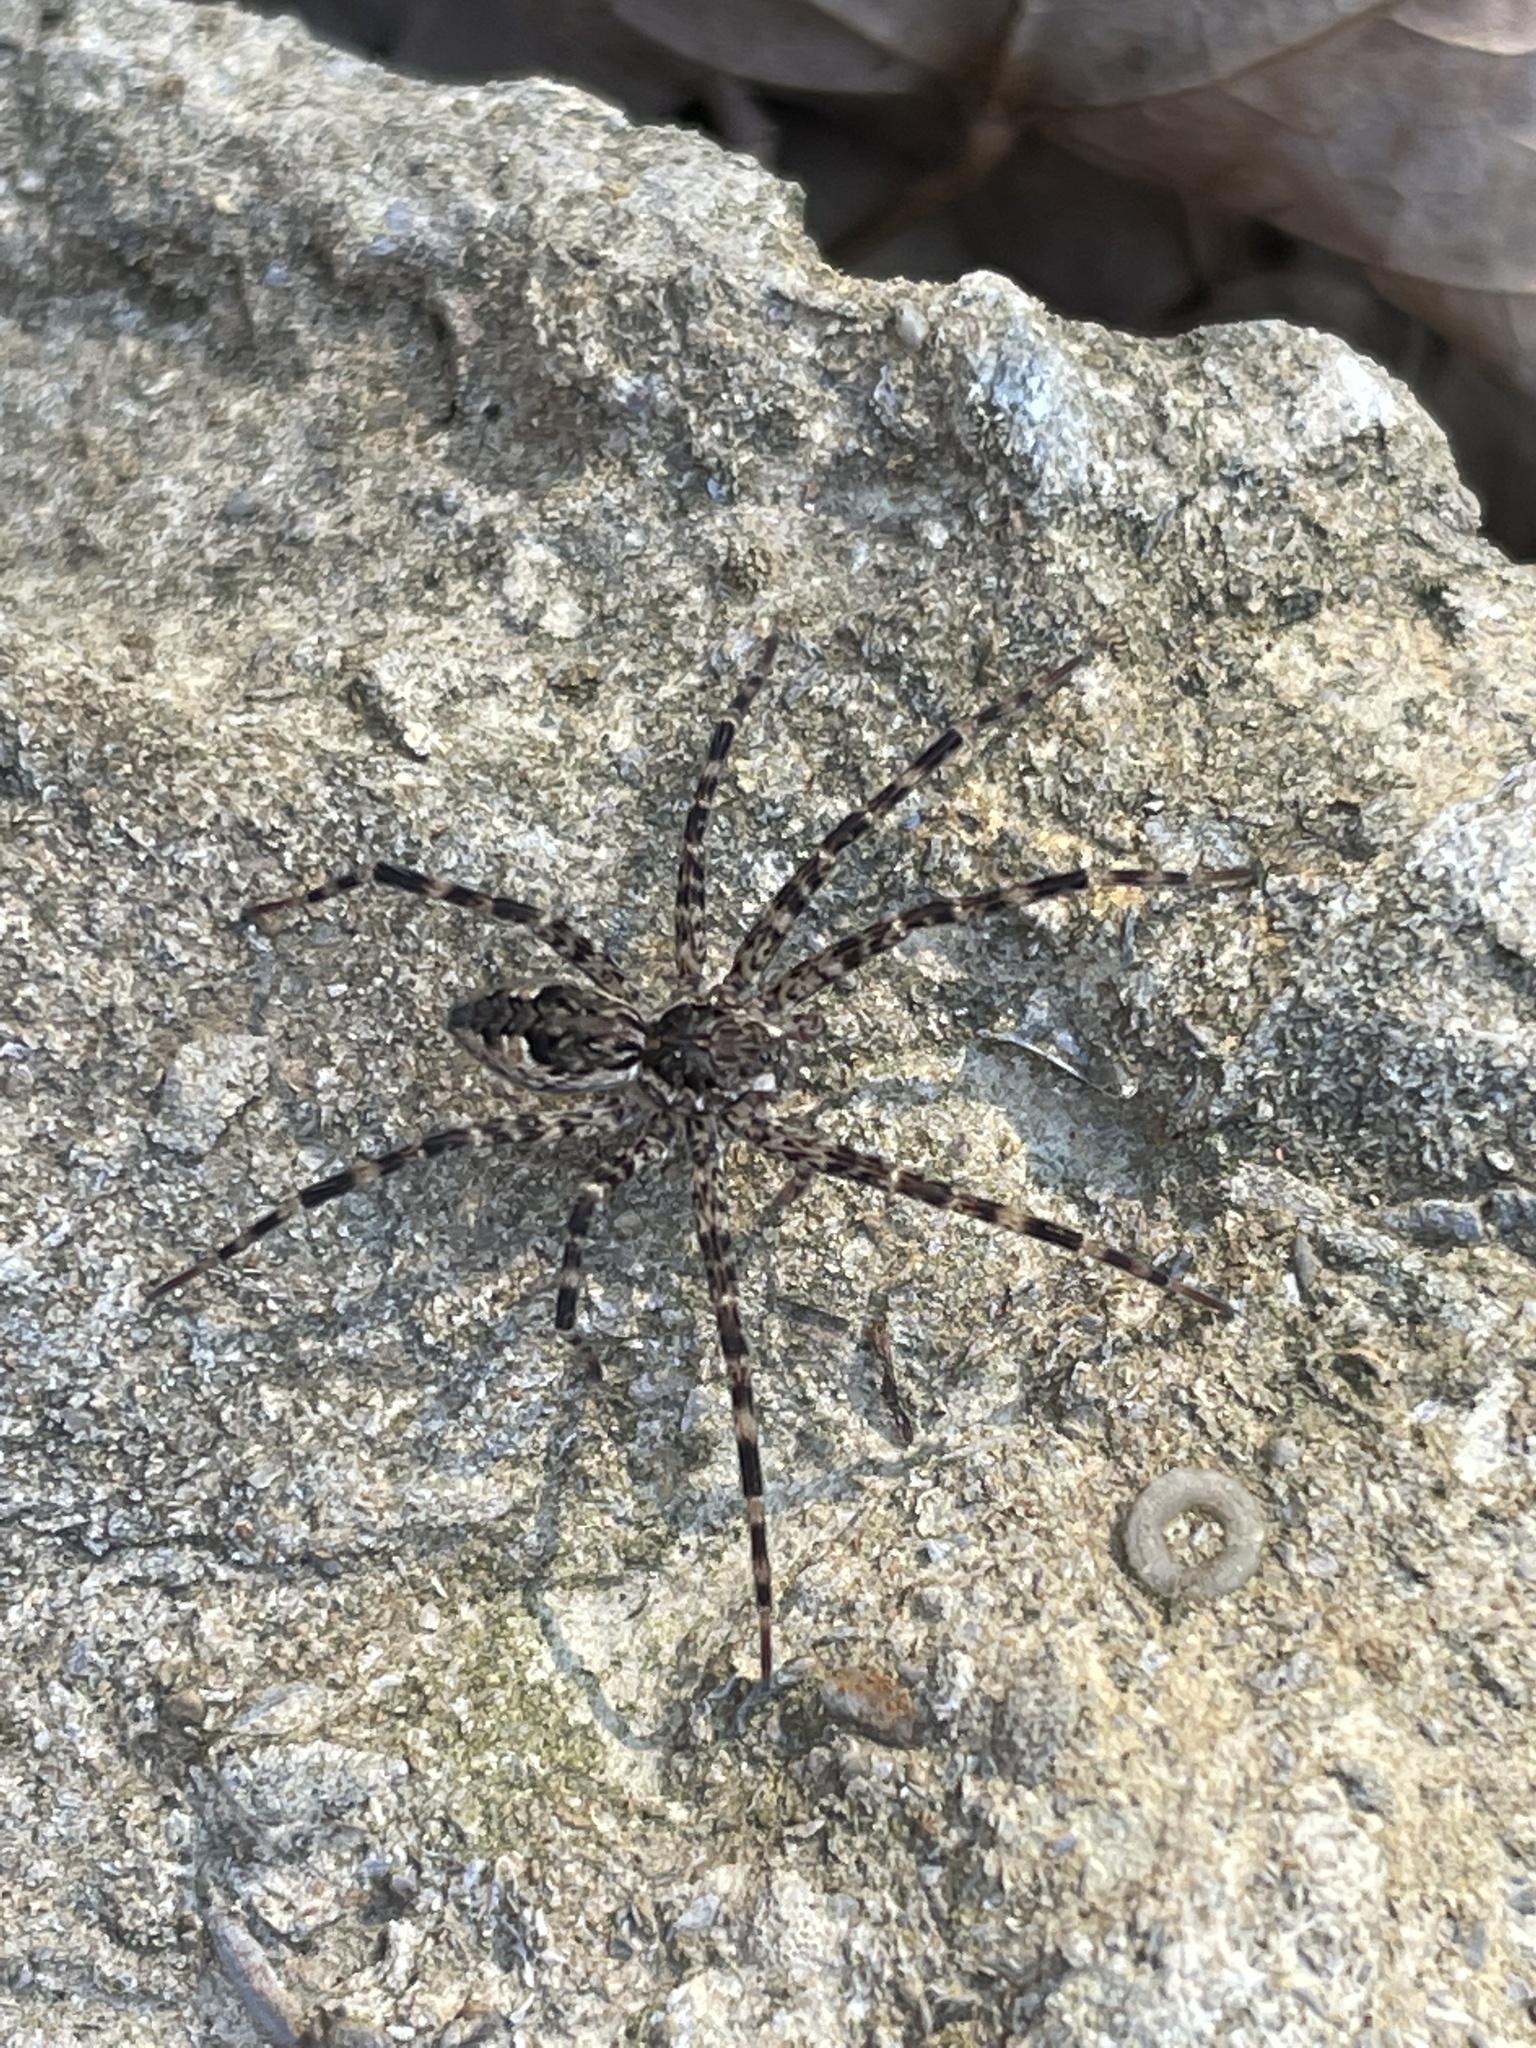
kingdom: Animalia
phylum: Arthropoda
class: Arachnida
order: Araneae
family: Pisauridae
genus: Dolomedes
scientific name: Dolomedes tenebrosus
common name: Dark fishing spider
